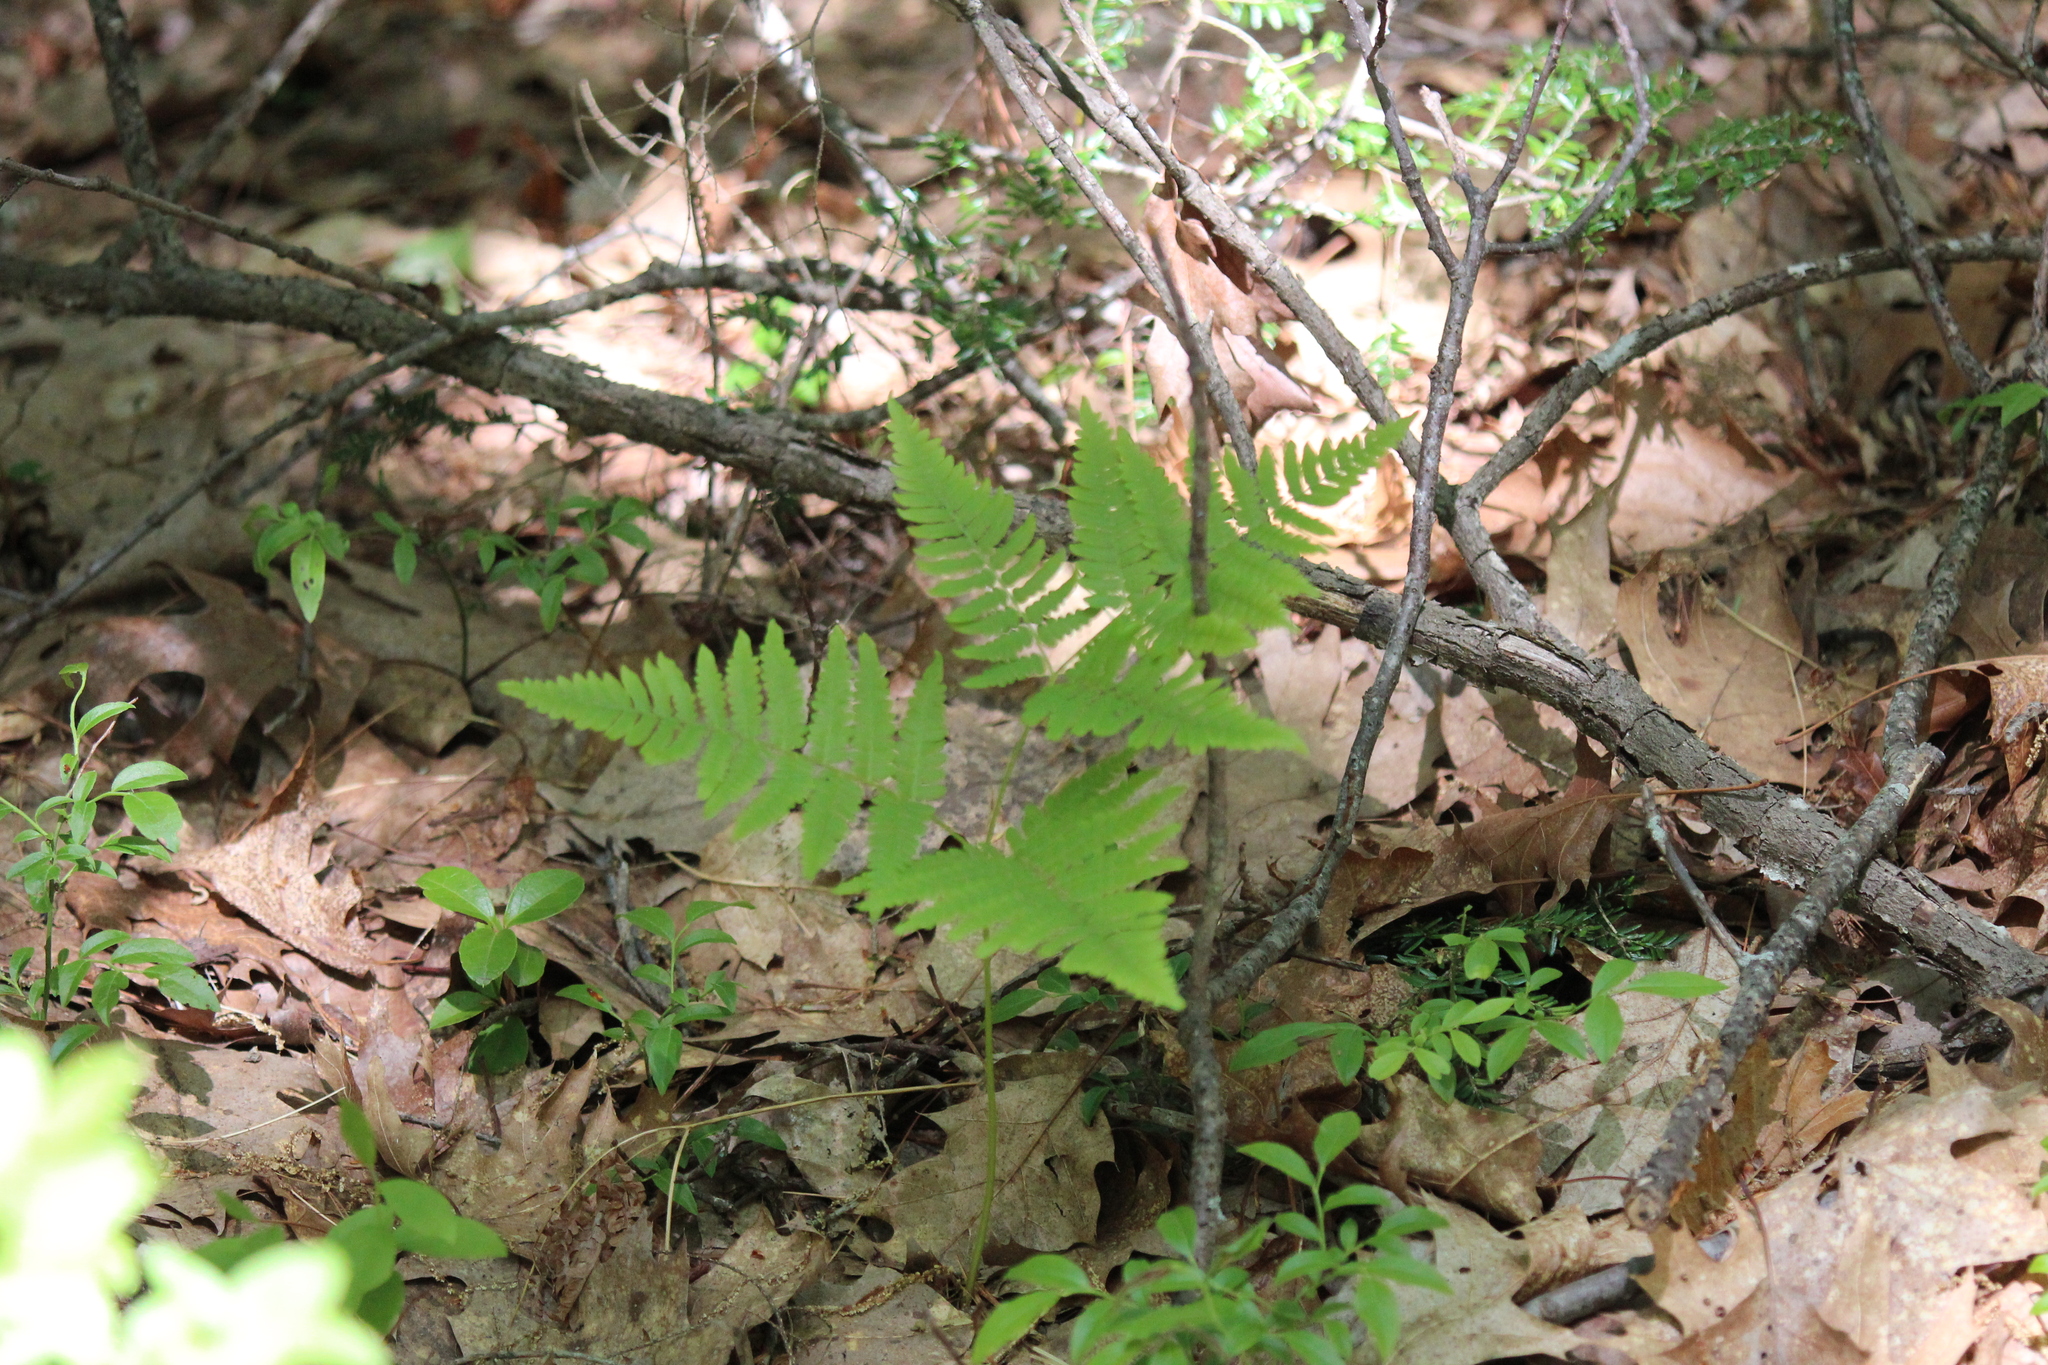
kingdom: Plantae
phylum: Tracheophyta
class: Polypodiopsida
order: Polypodiales
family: Dennstaedtiaceae
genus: Pteridium
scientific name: Pteridium aquilinum
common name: Bracken
